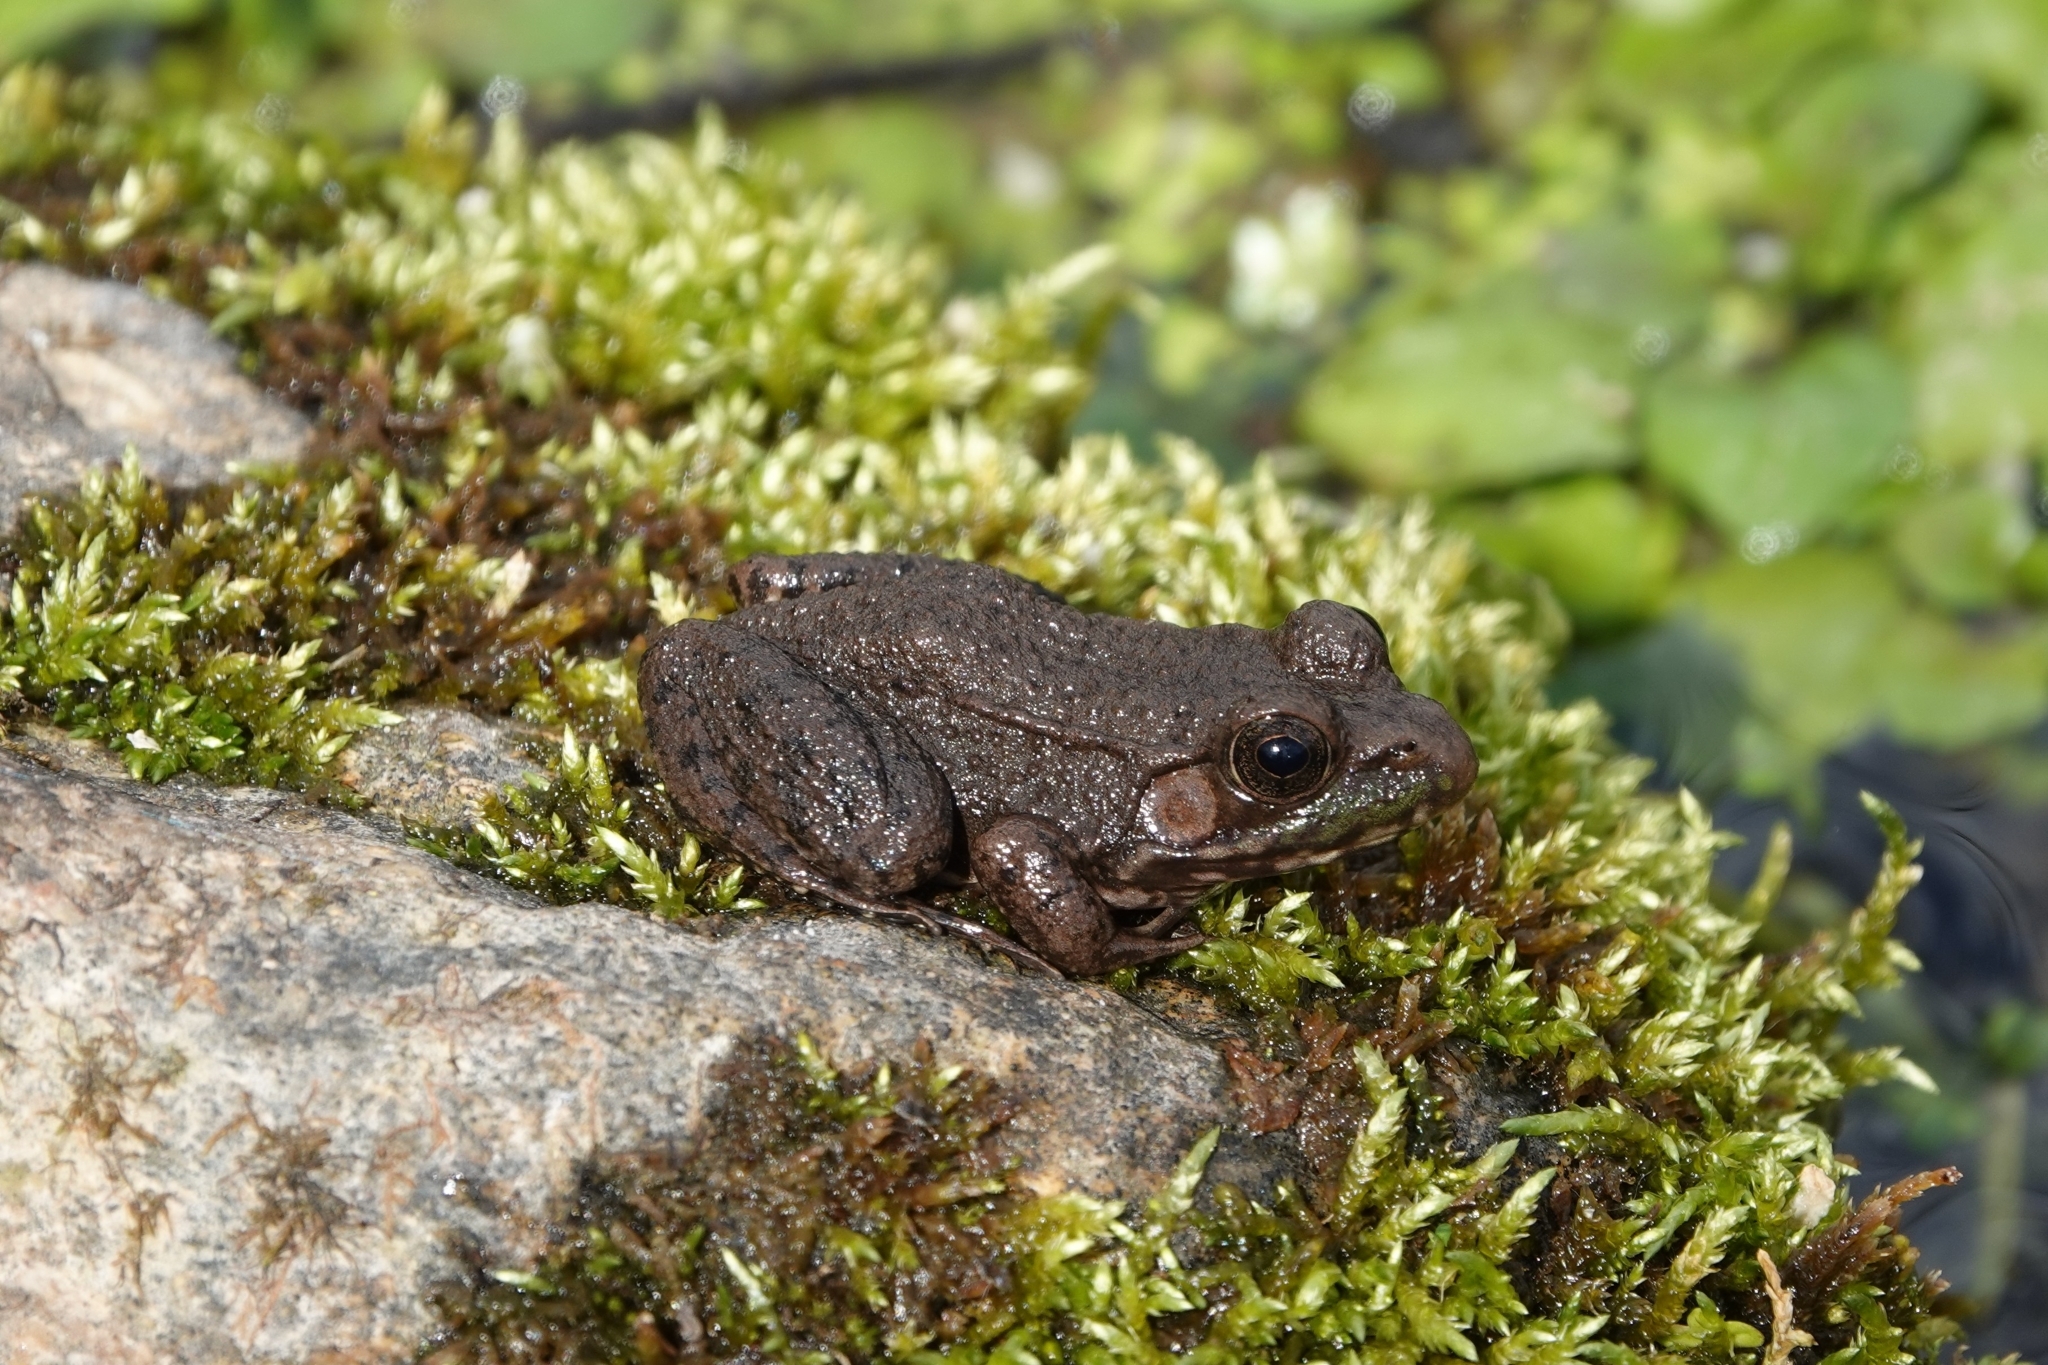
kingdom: Animalia
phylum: Chordata
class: Amphibia
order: Anura
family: Ranidae
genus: Lithobates
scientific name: Lithobates clamitans
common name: Green frog
